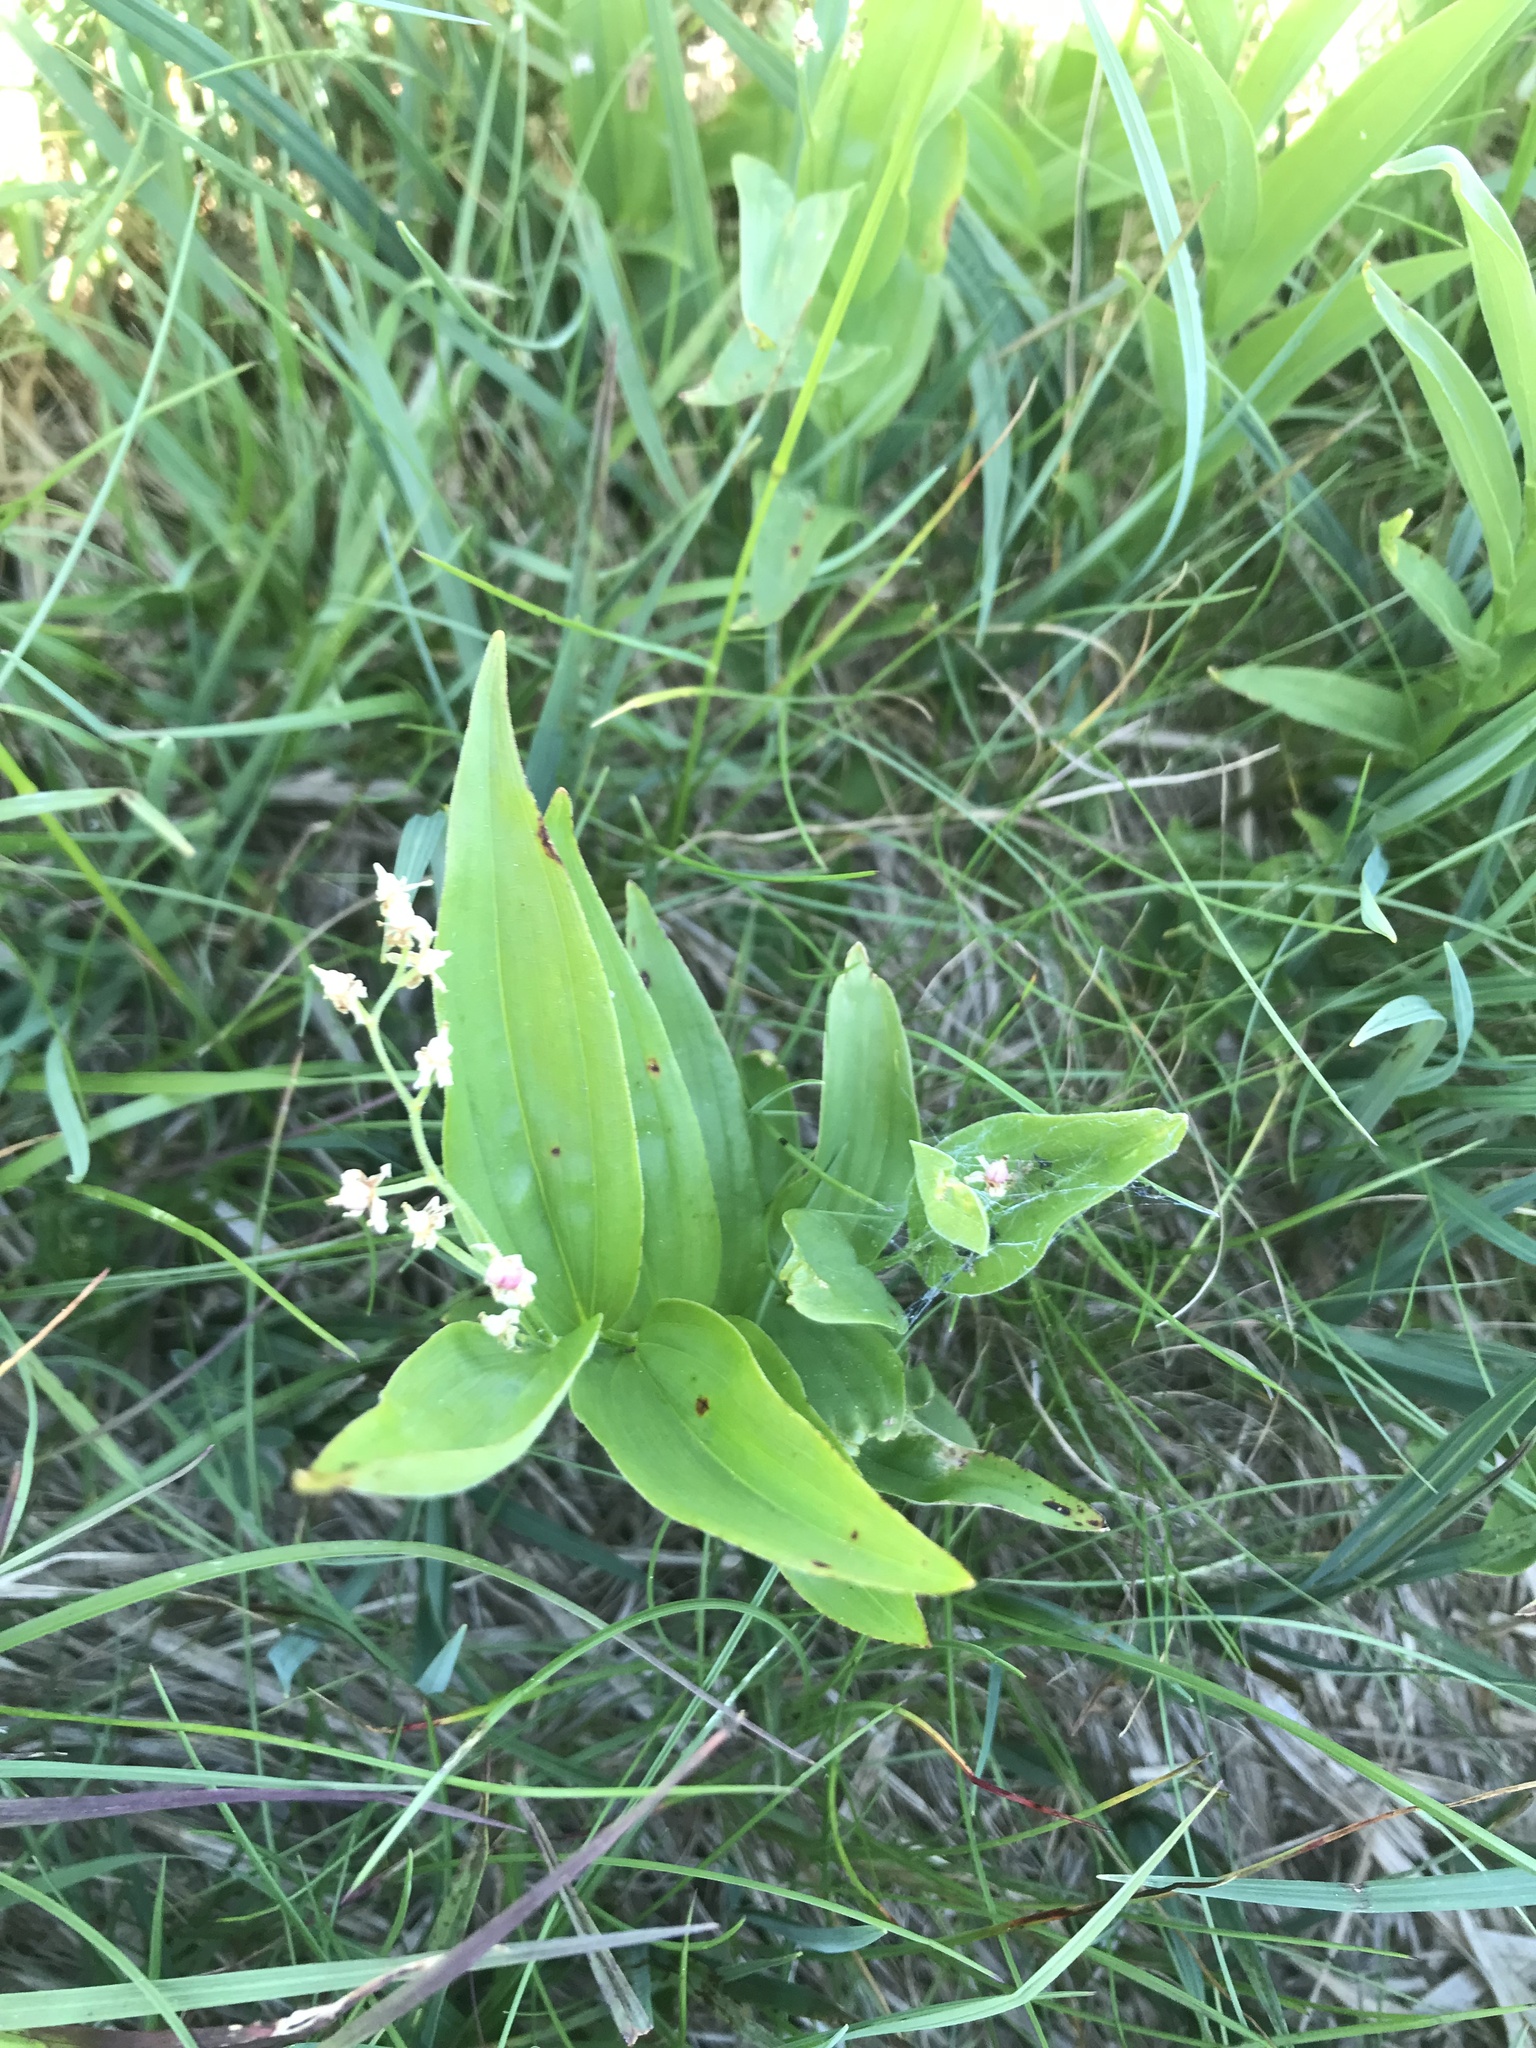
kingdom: Plantae
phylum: Tracheophyta
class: Liliopsida
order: Asparagales
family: Asparagaceae
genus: Maianthemum
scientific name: Maianthemum stellatum
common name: Little false solomon's seal
